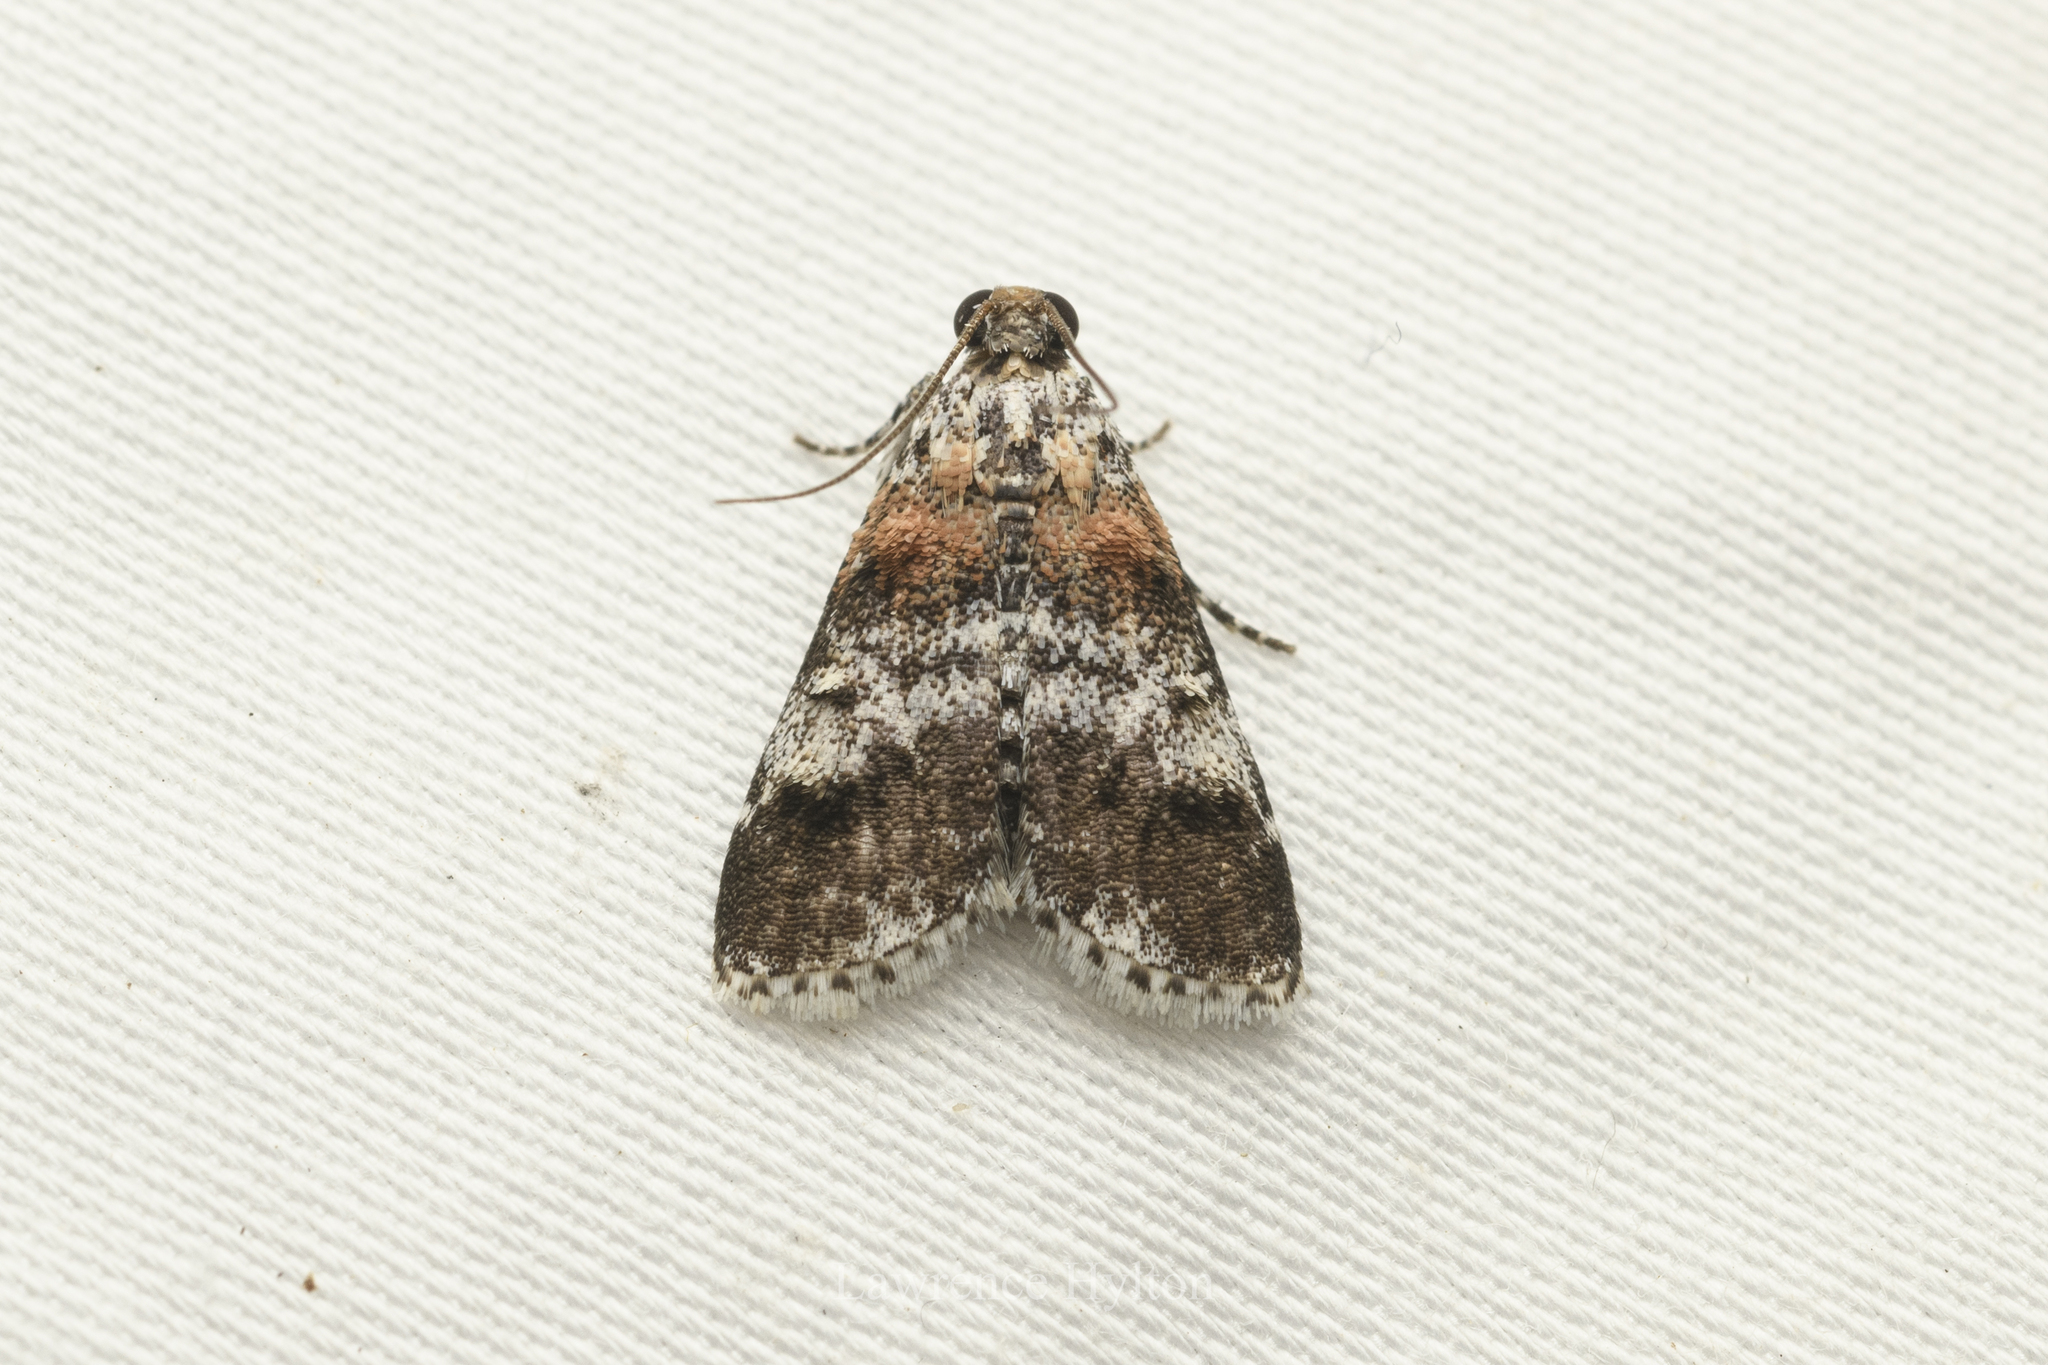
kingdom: Animalia
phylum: Arthropoda
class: Insecta
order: Lepidoptera
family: Pyralidae
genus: Salma
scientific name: Salma
